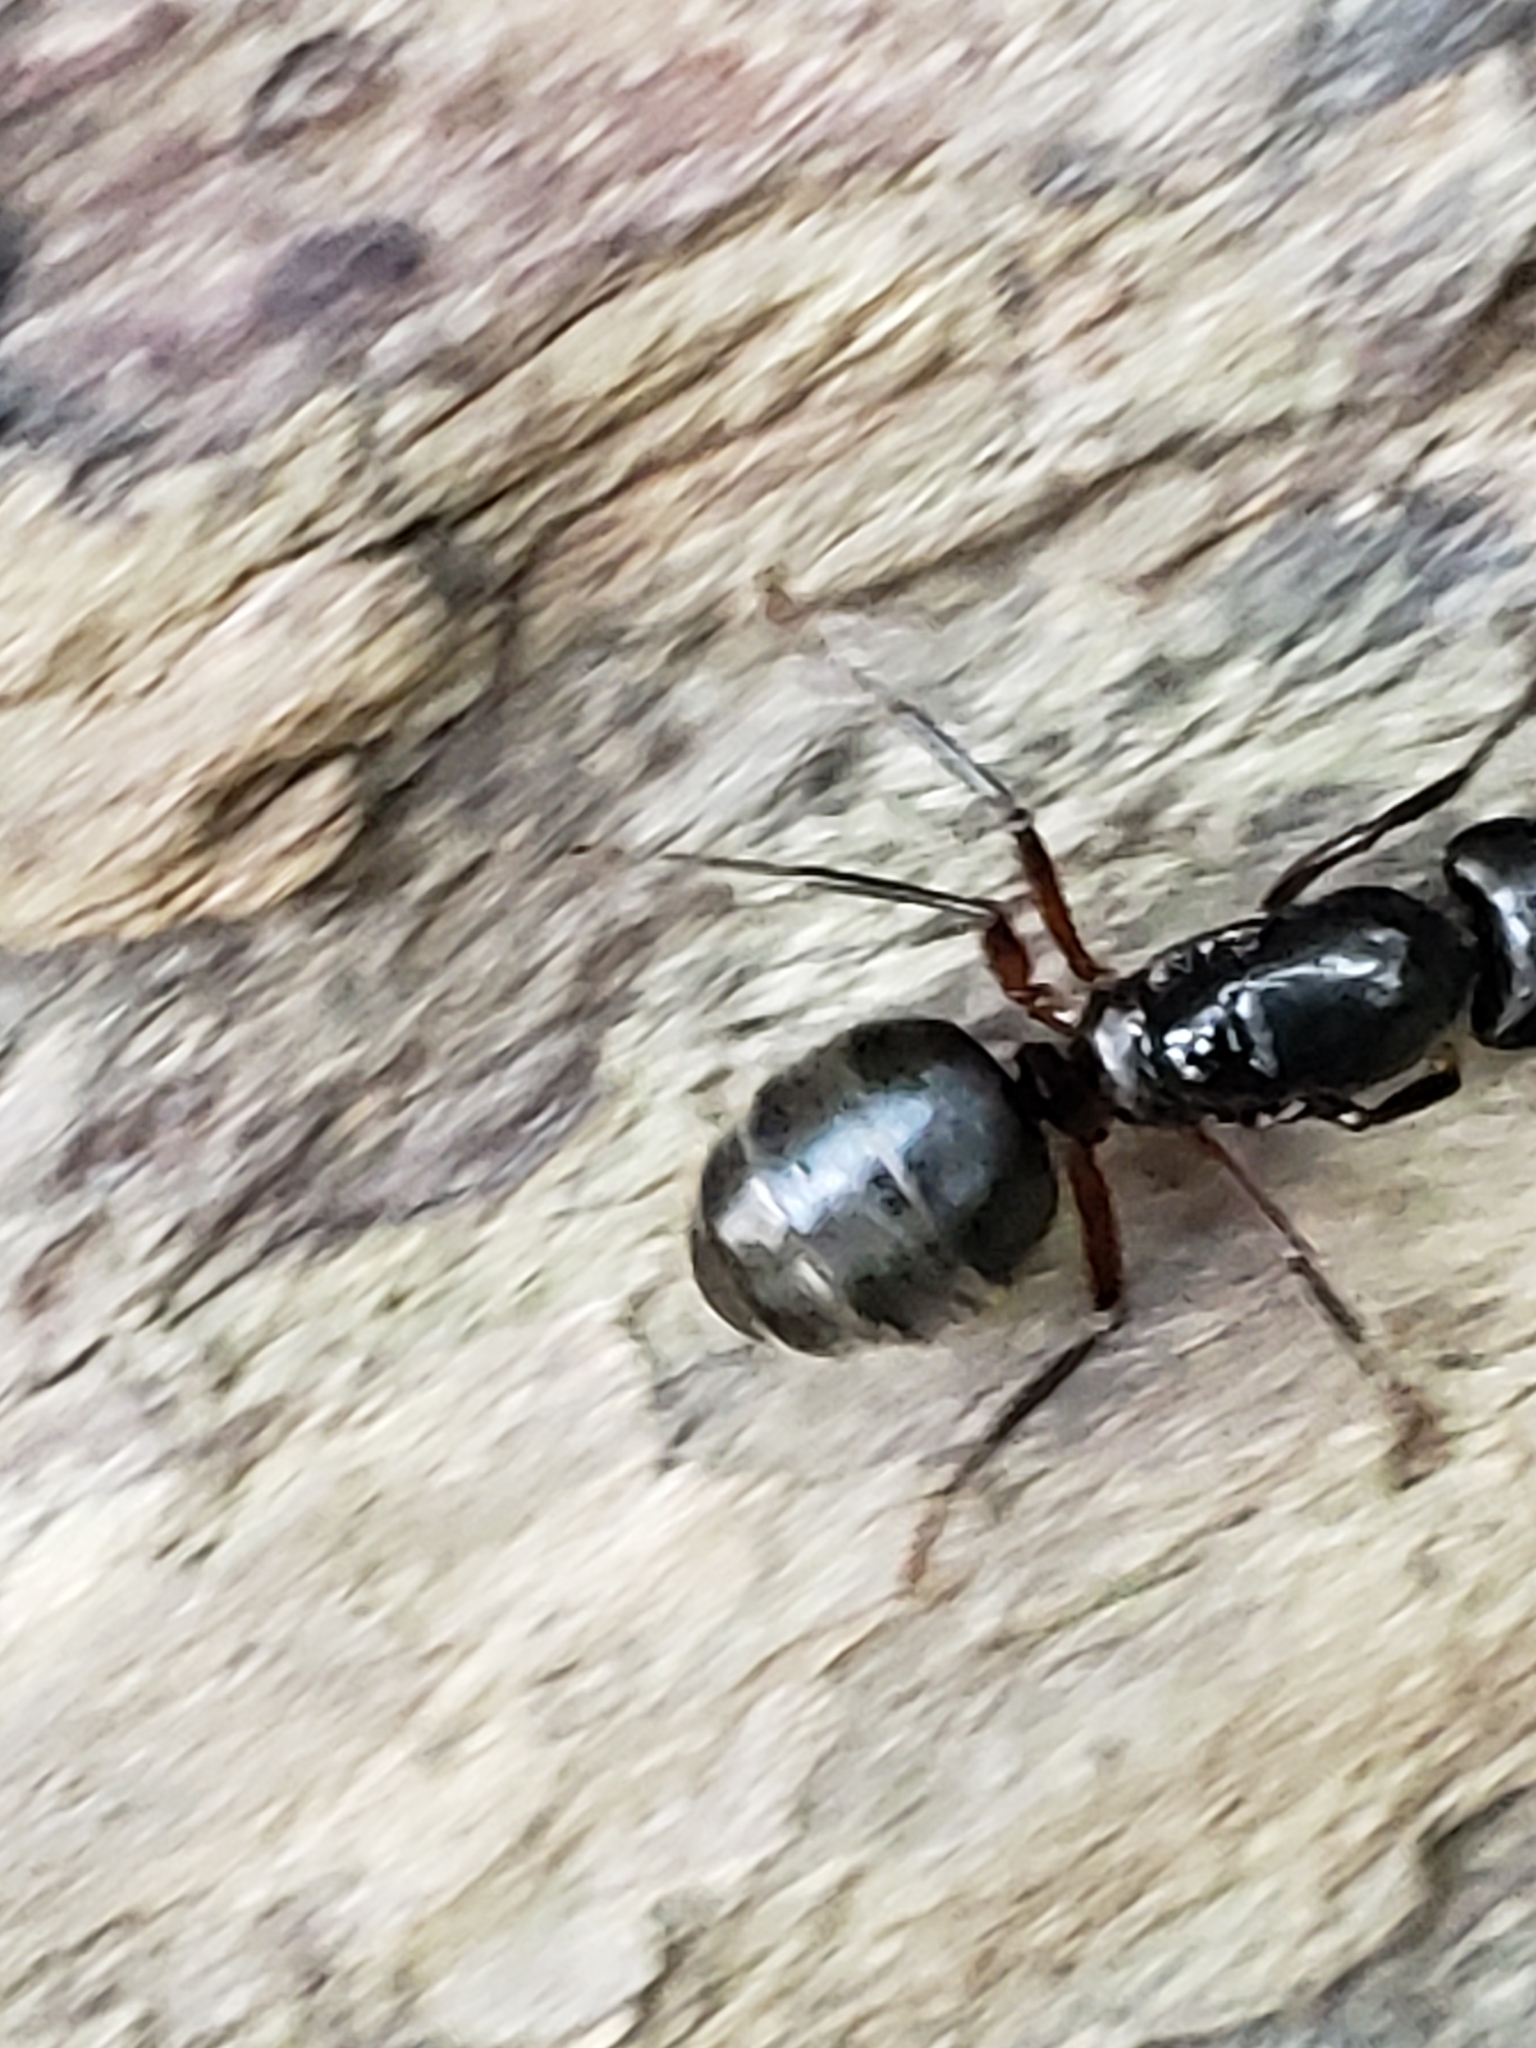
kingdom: Animalia
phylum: Arthropoda
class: Insecta
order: Hymenoptera
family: Formicidae
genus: Camponotus
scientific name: Camponotus pennsylvanicus
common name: Black carpenter ant
